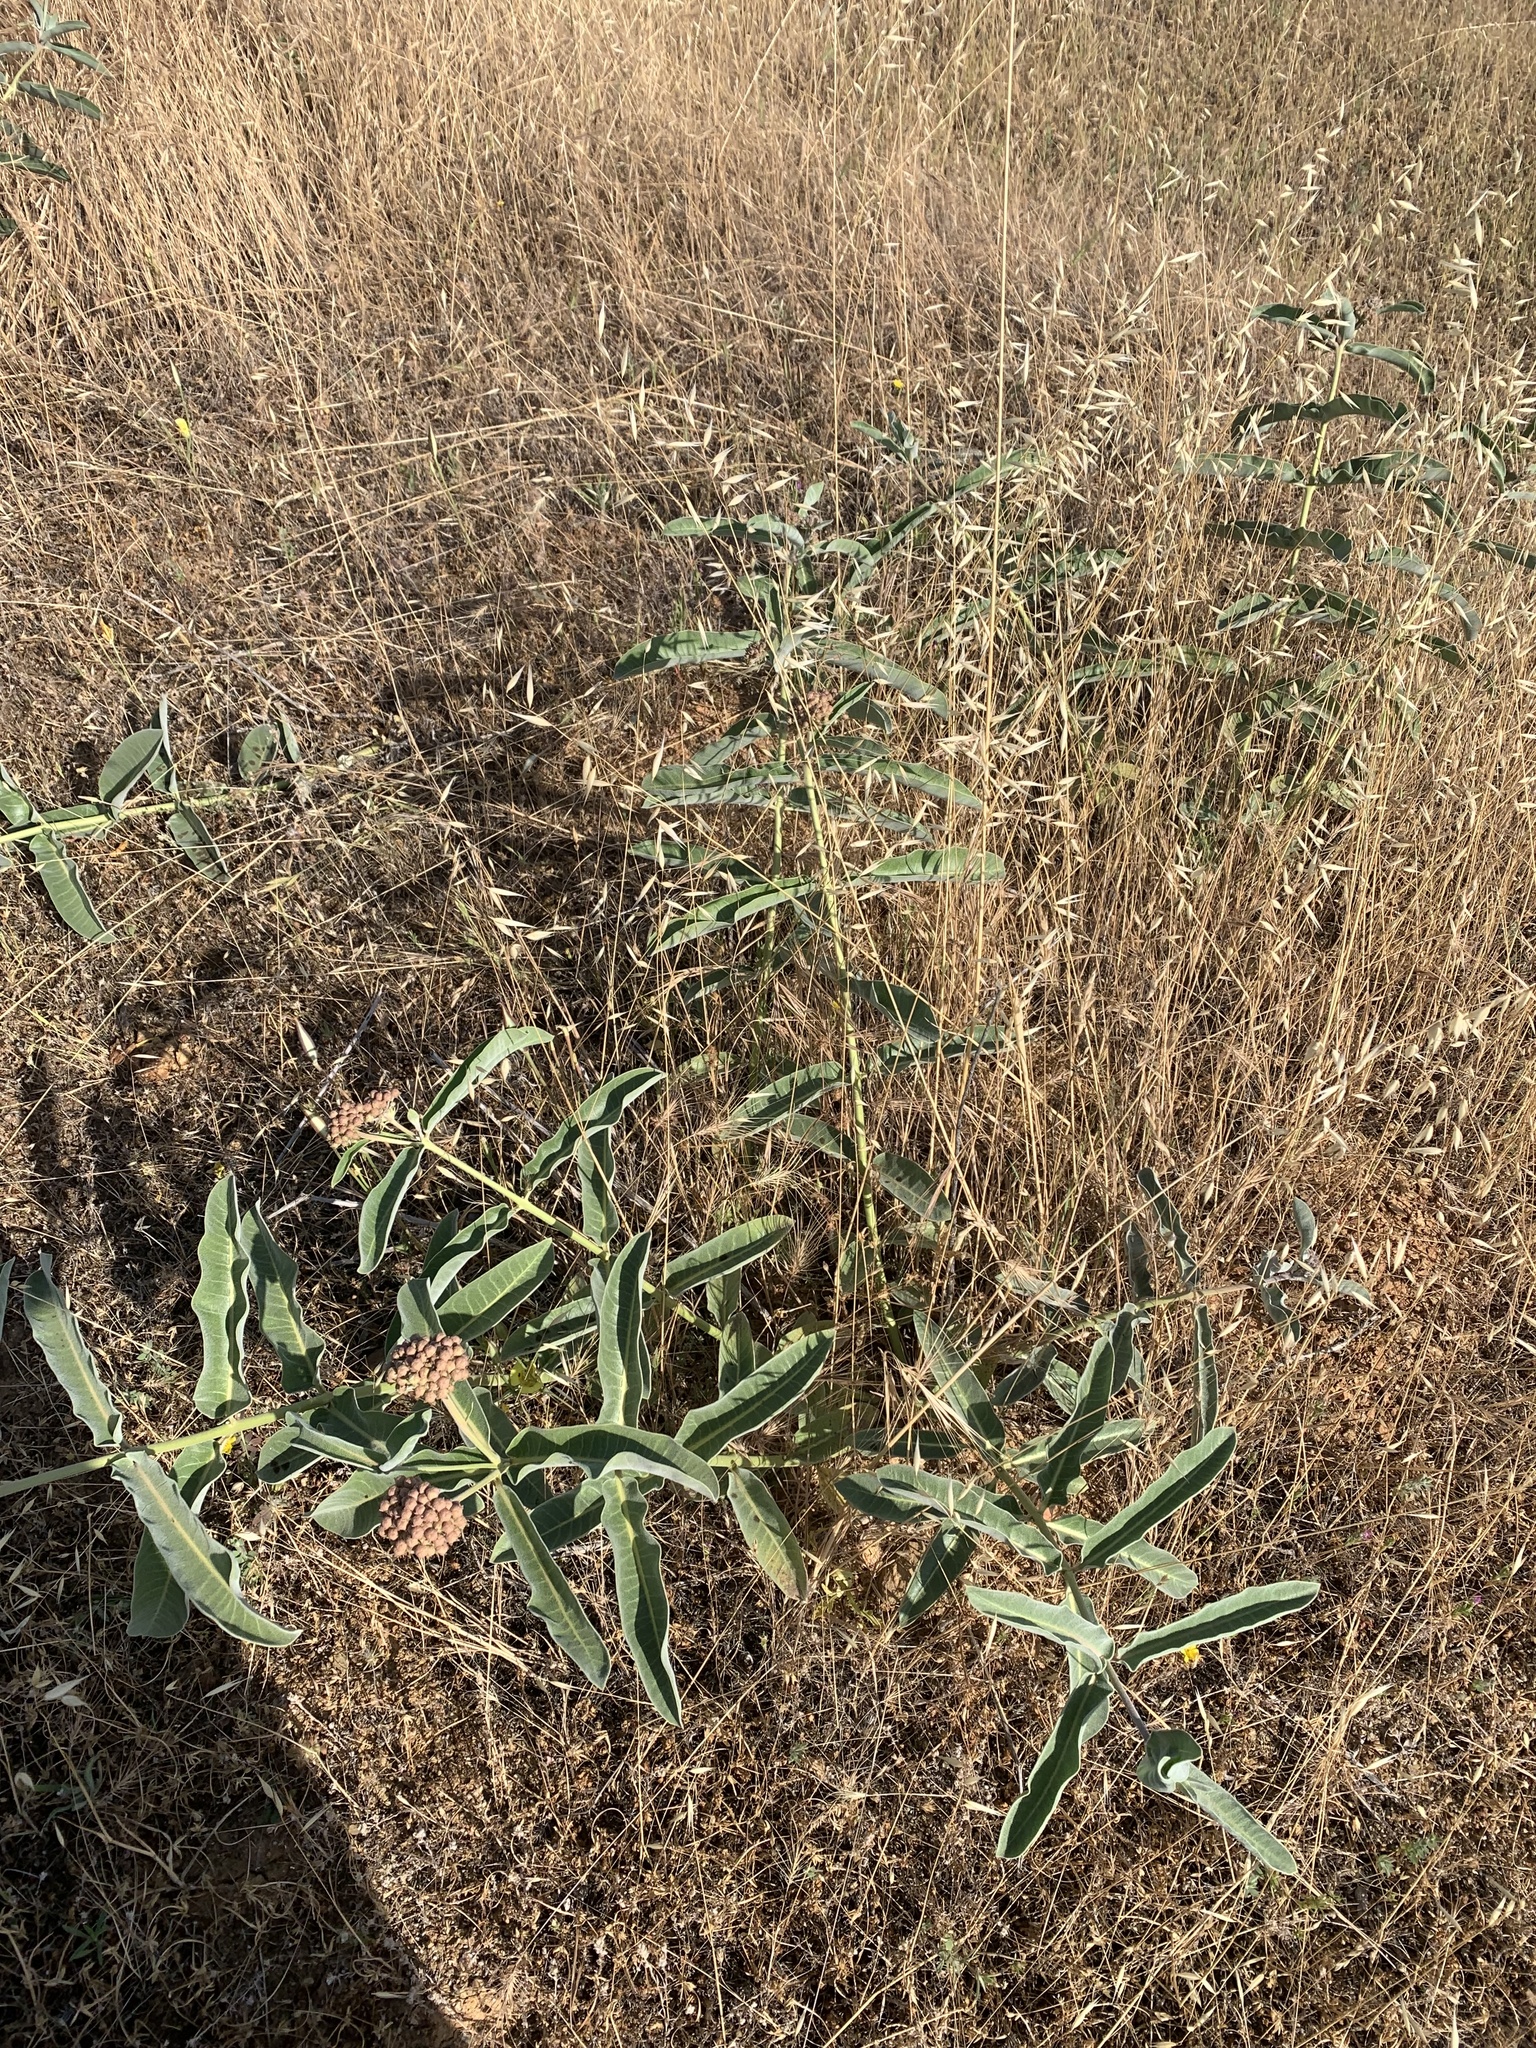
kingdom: Plantae
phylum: Tracheophyta
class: Magnoliopsida
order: Gentianales
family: Apocynaceae
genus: Asclepias
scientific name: Asclepias eriocarpa
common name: Indian milkweed
